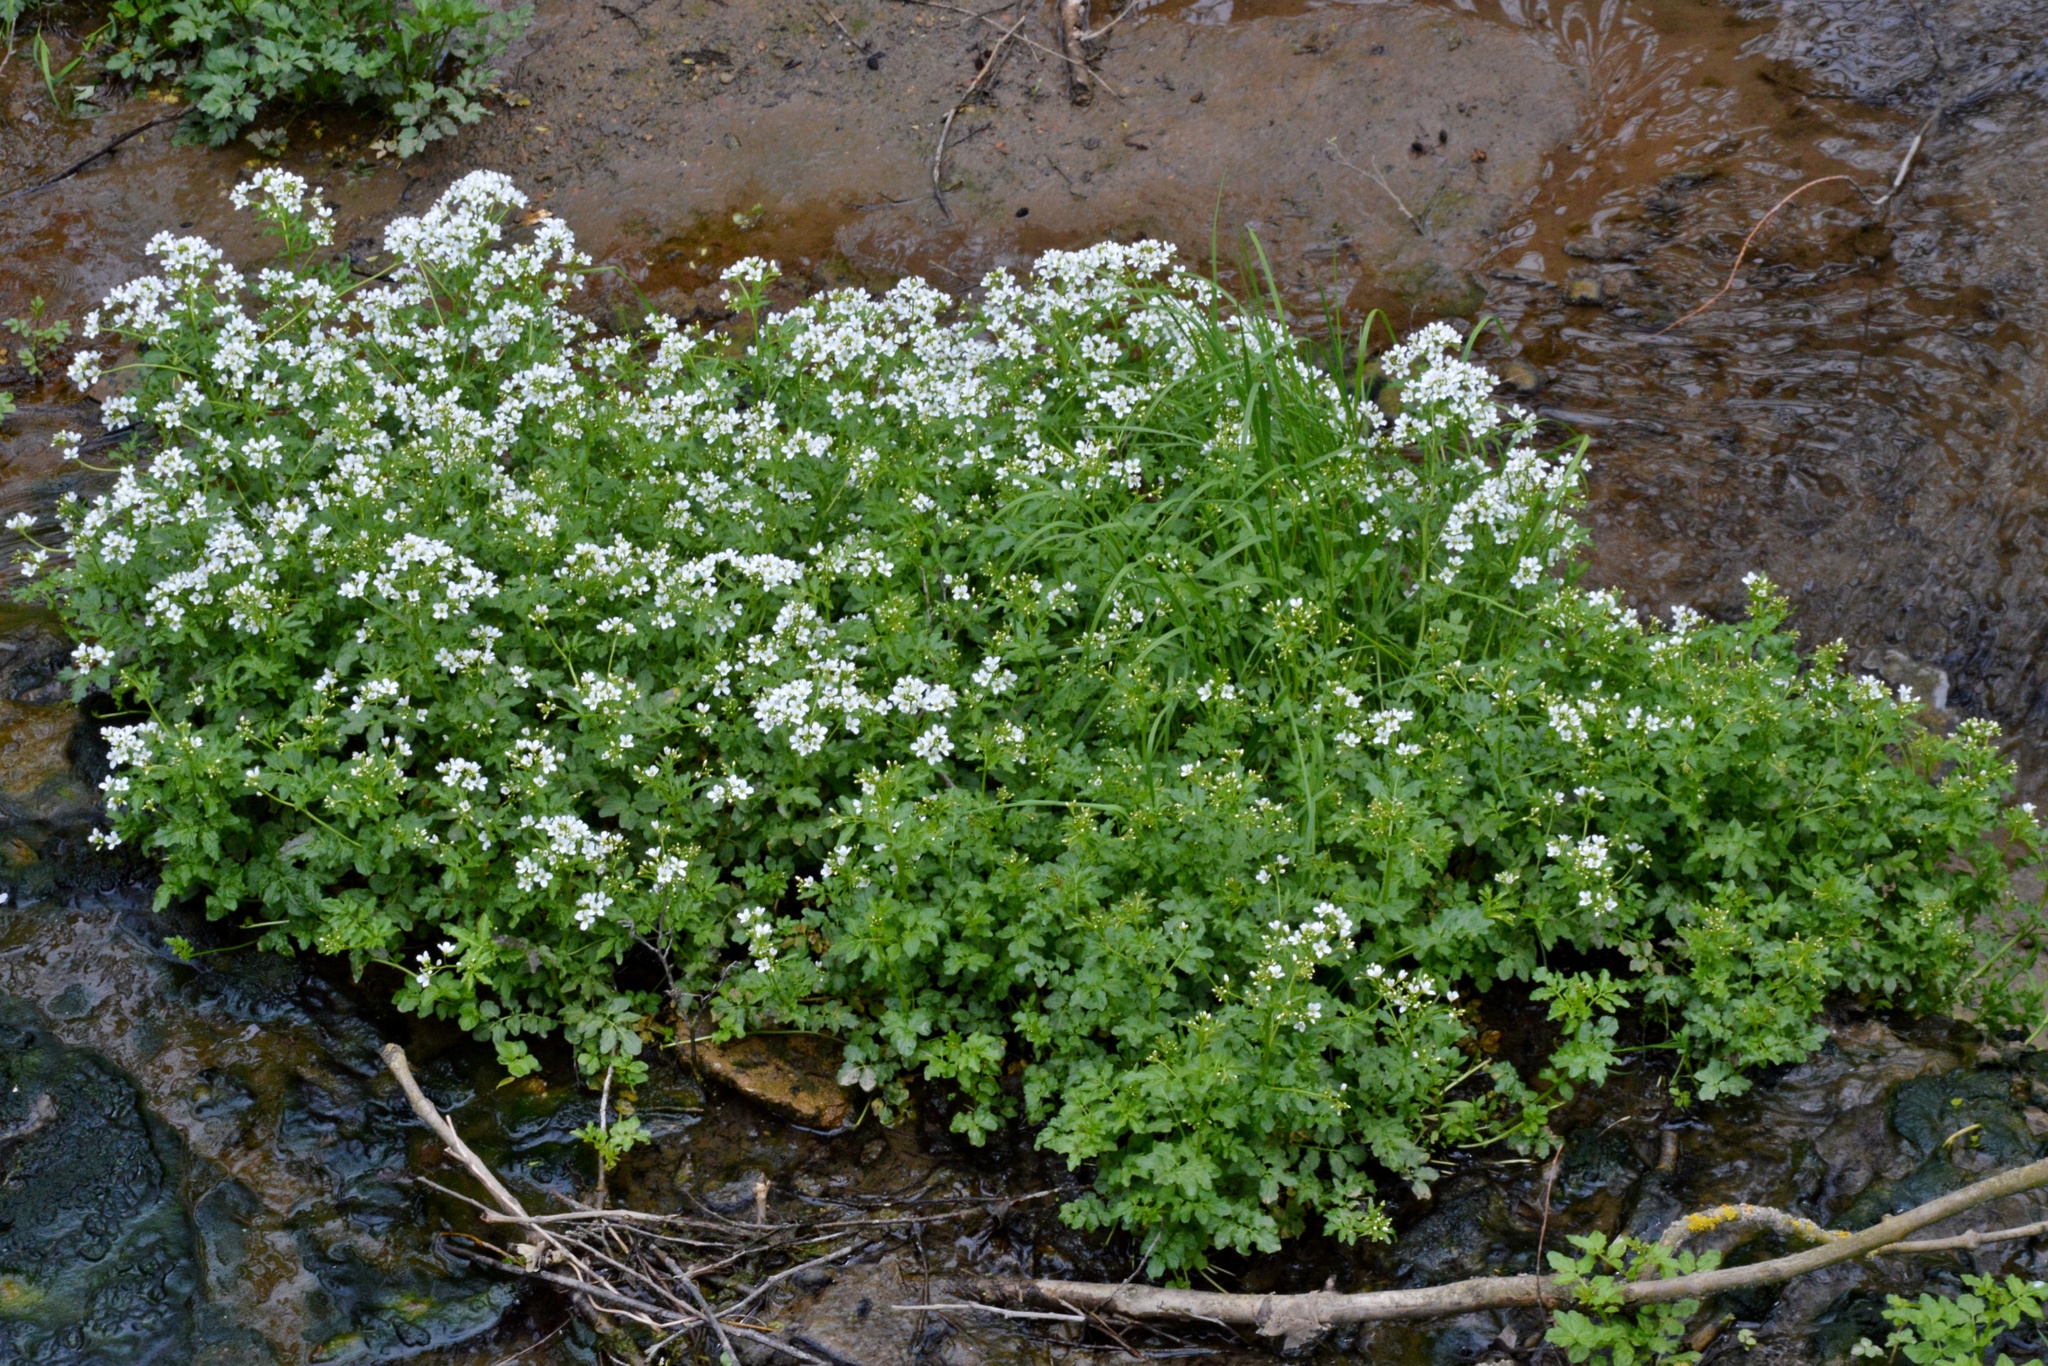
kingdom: Plantae
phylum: Tracheophyta
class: Magnoliopsida
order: Brassicales
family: Brassicaceae
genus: Cardamine
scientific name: Cardamine amara
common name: Large bitter-cress
